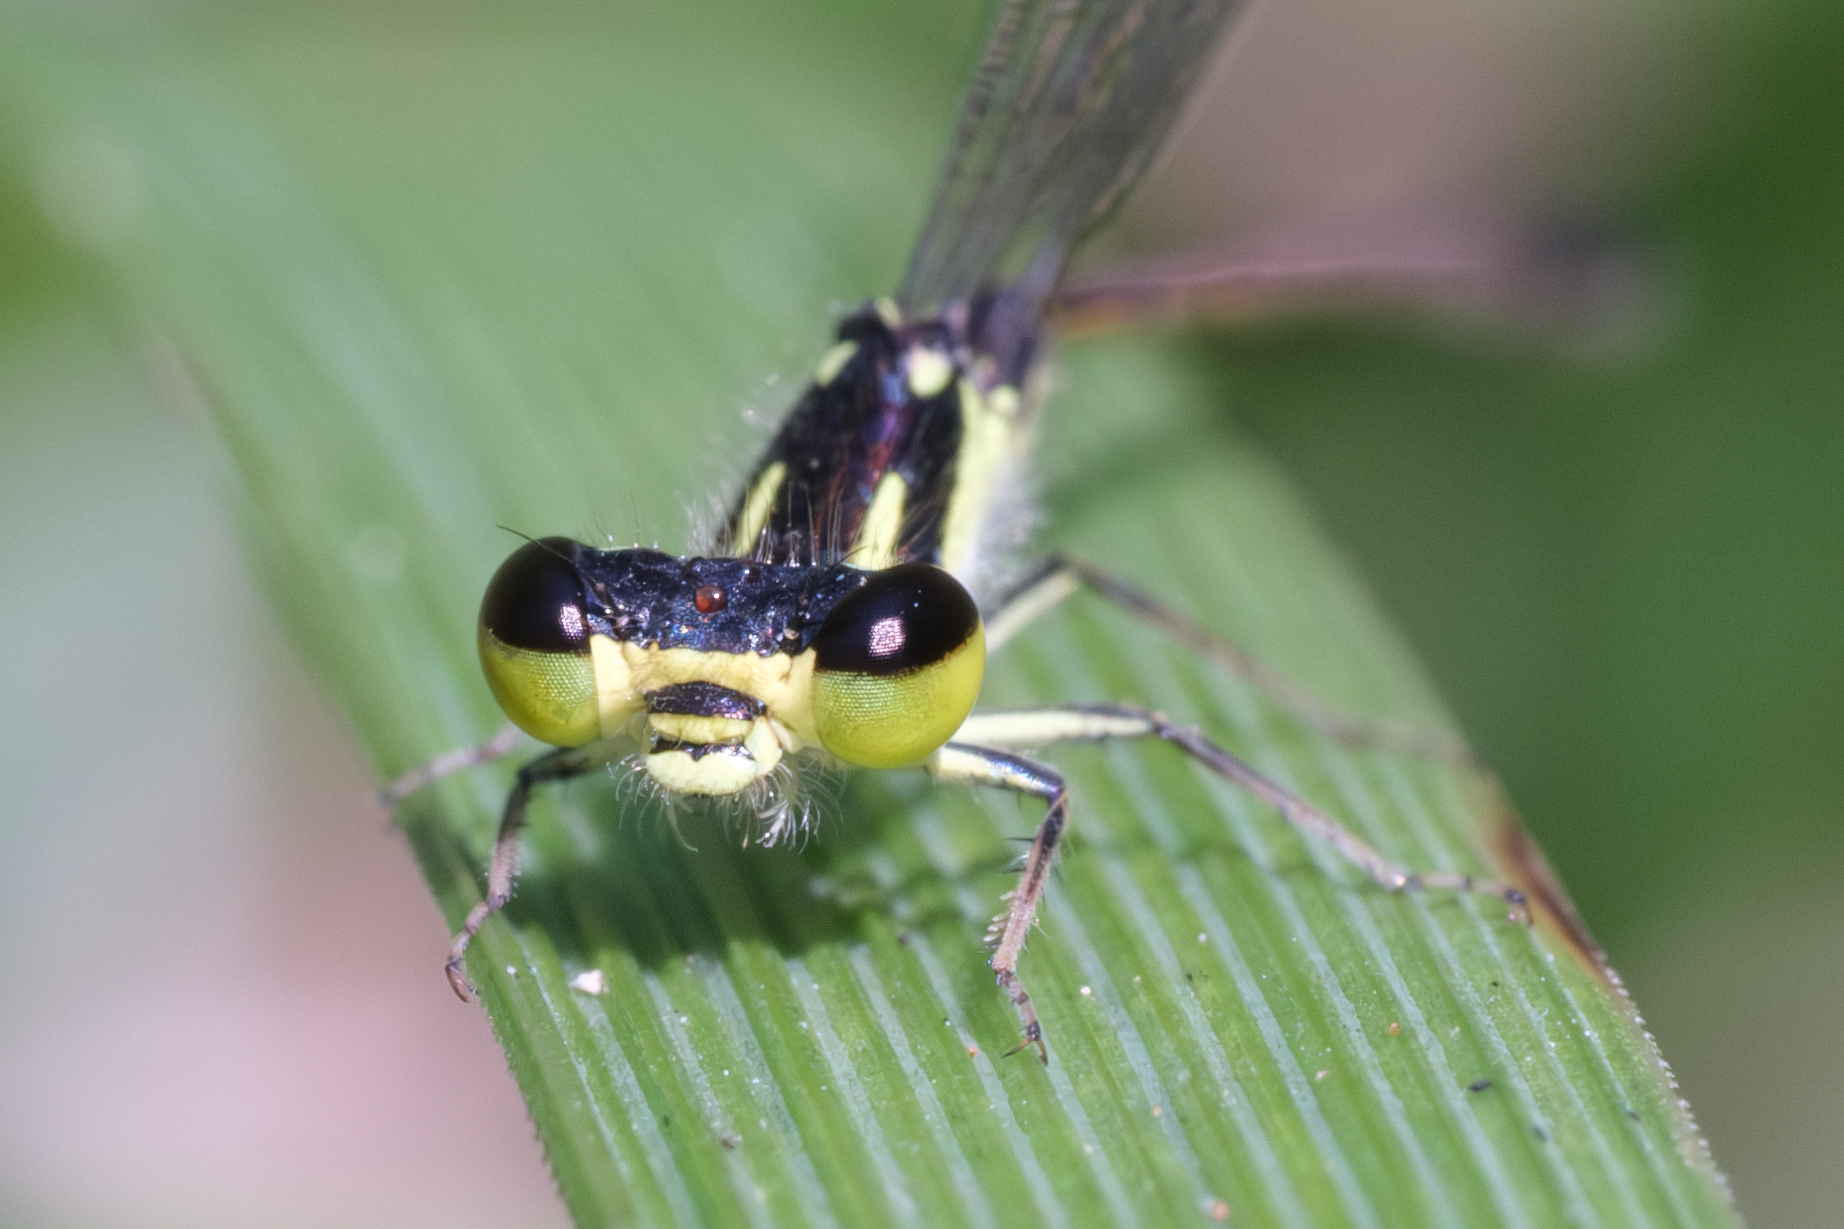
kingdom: Animalia
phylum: Arthropoda
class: Insecta
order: Odonata
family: Coenagrionidae
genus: Ischnura
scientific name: Ischnura posita
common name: Fragile forktail
